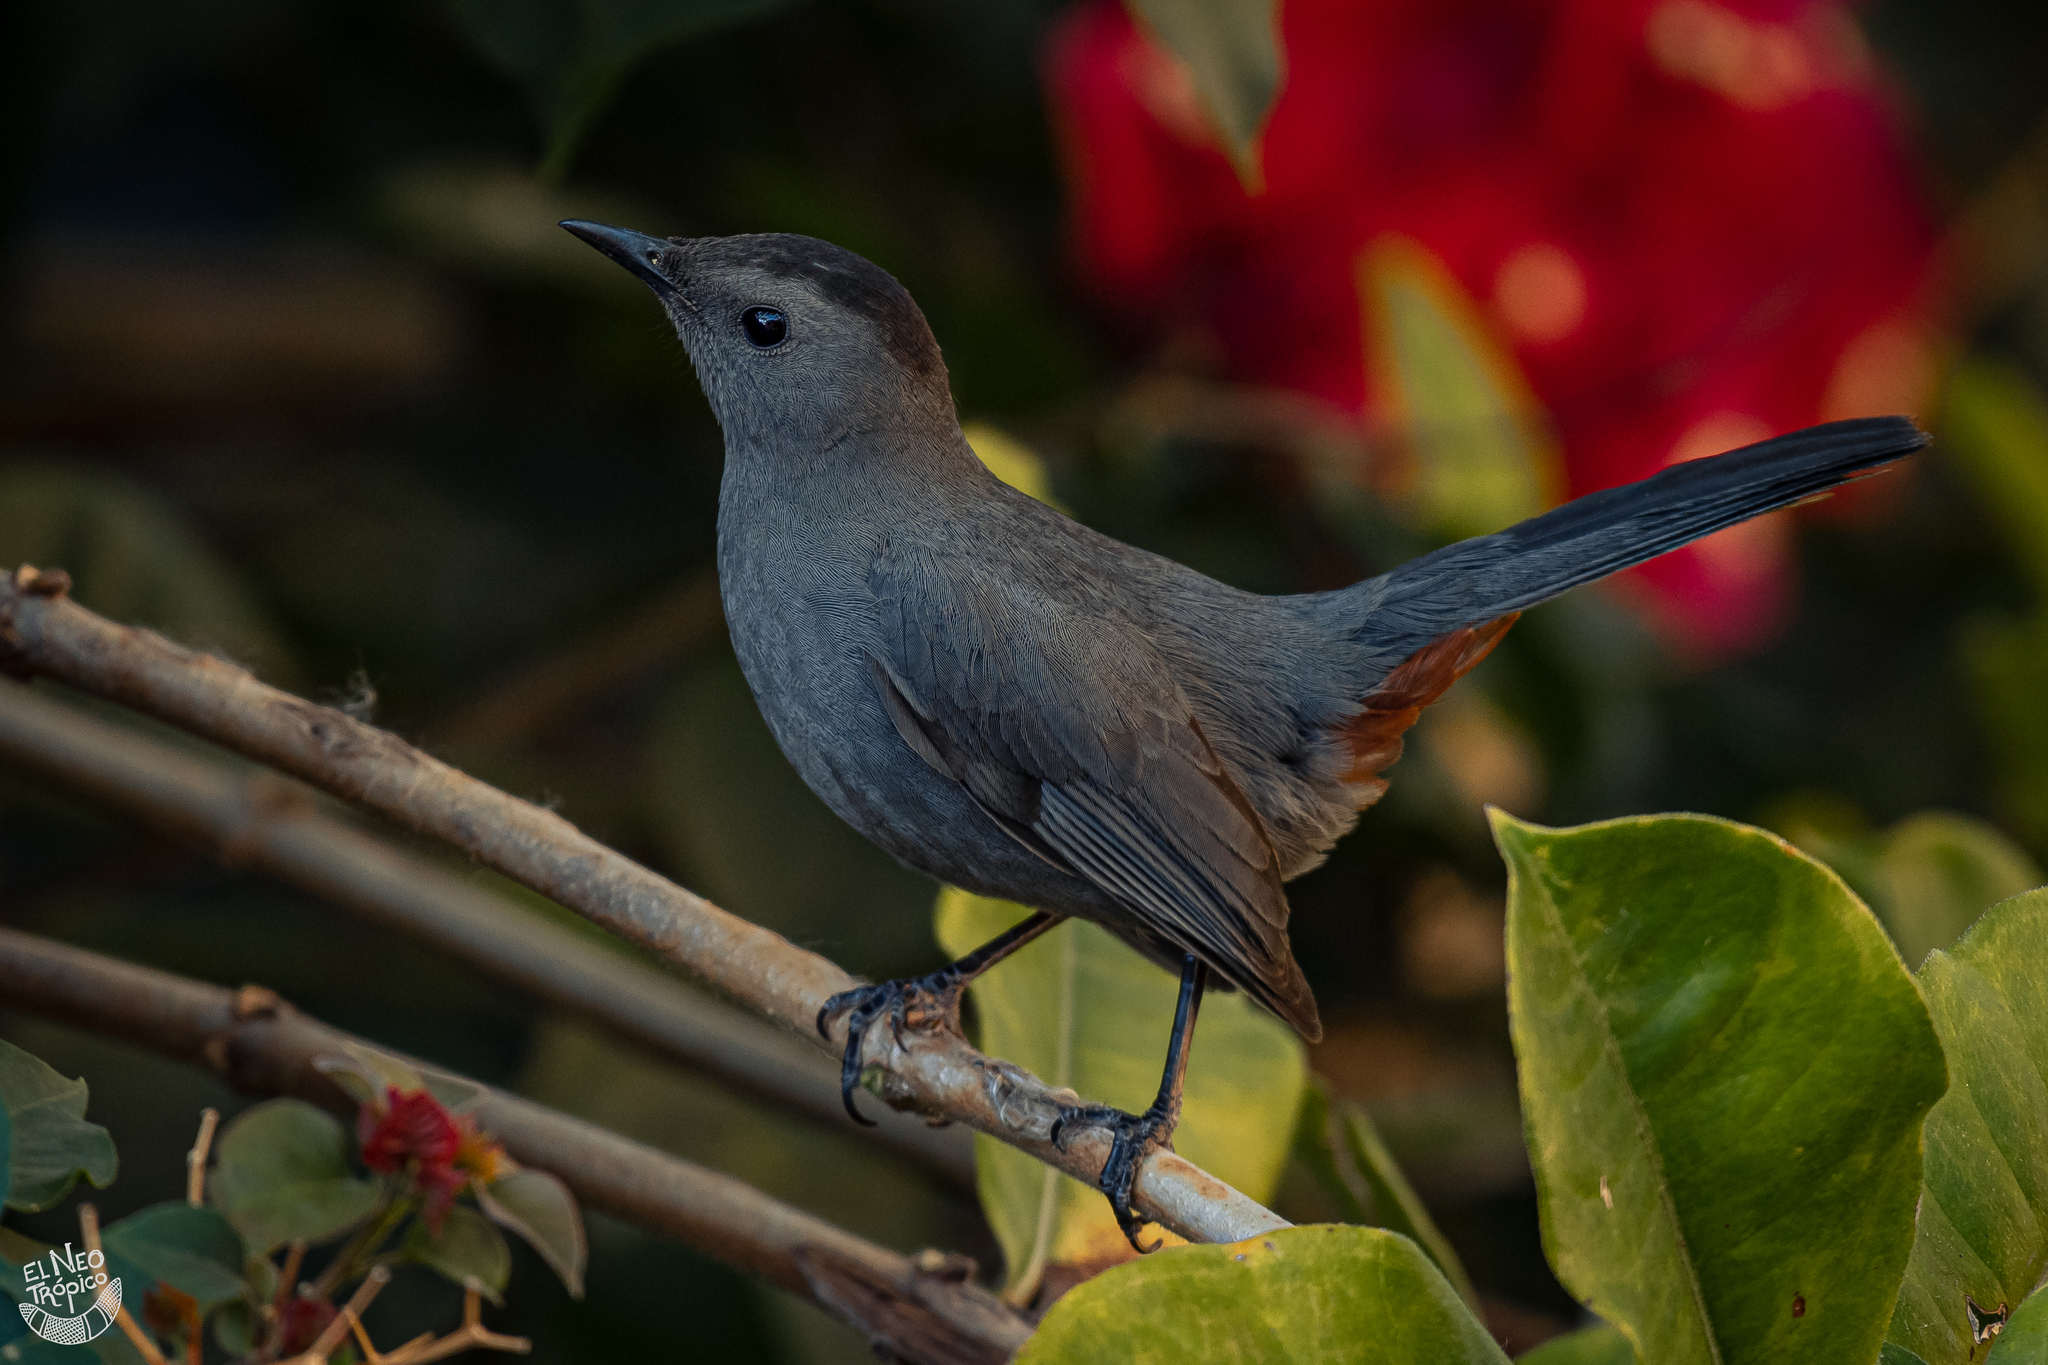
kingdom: Animalia
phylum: Chordata
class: Aves
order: Passeriformes
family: Mimidae
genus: Dumetella
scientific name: Dumetella carolinensis
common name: Gray catbird
